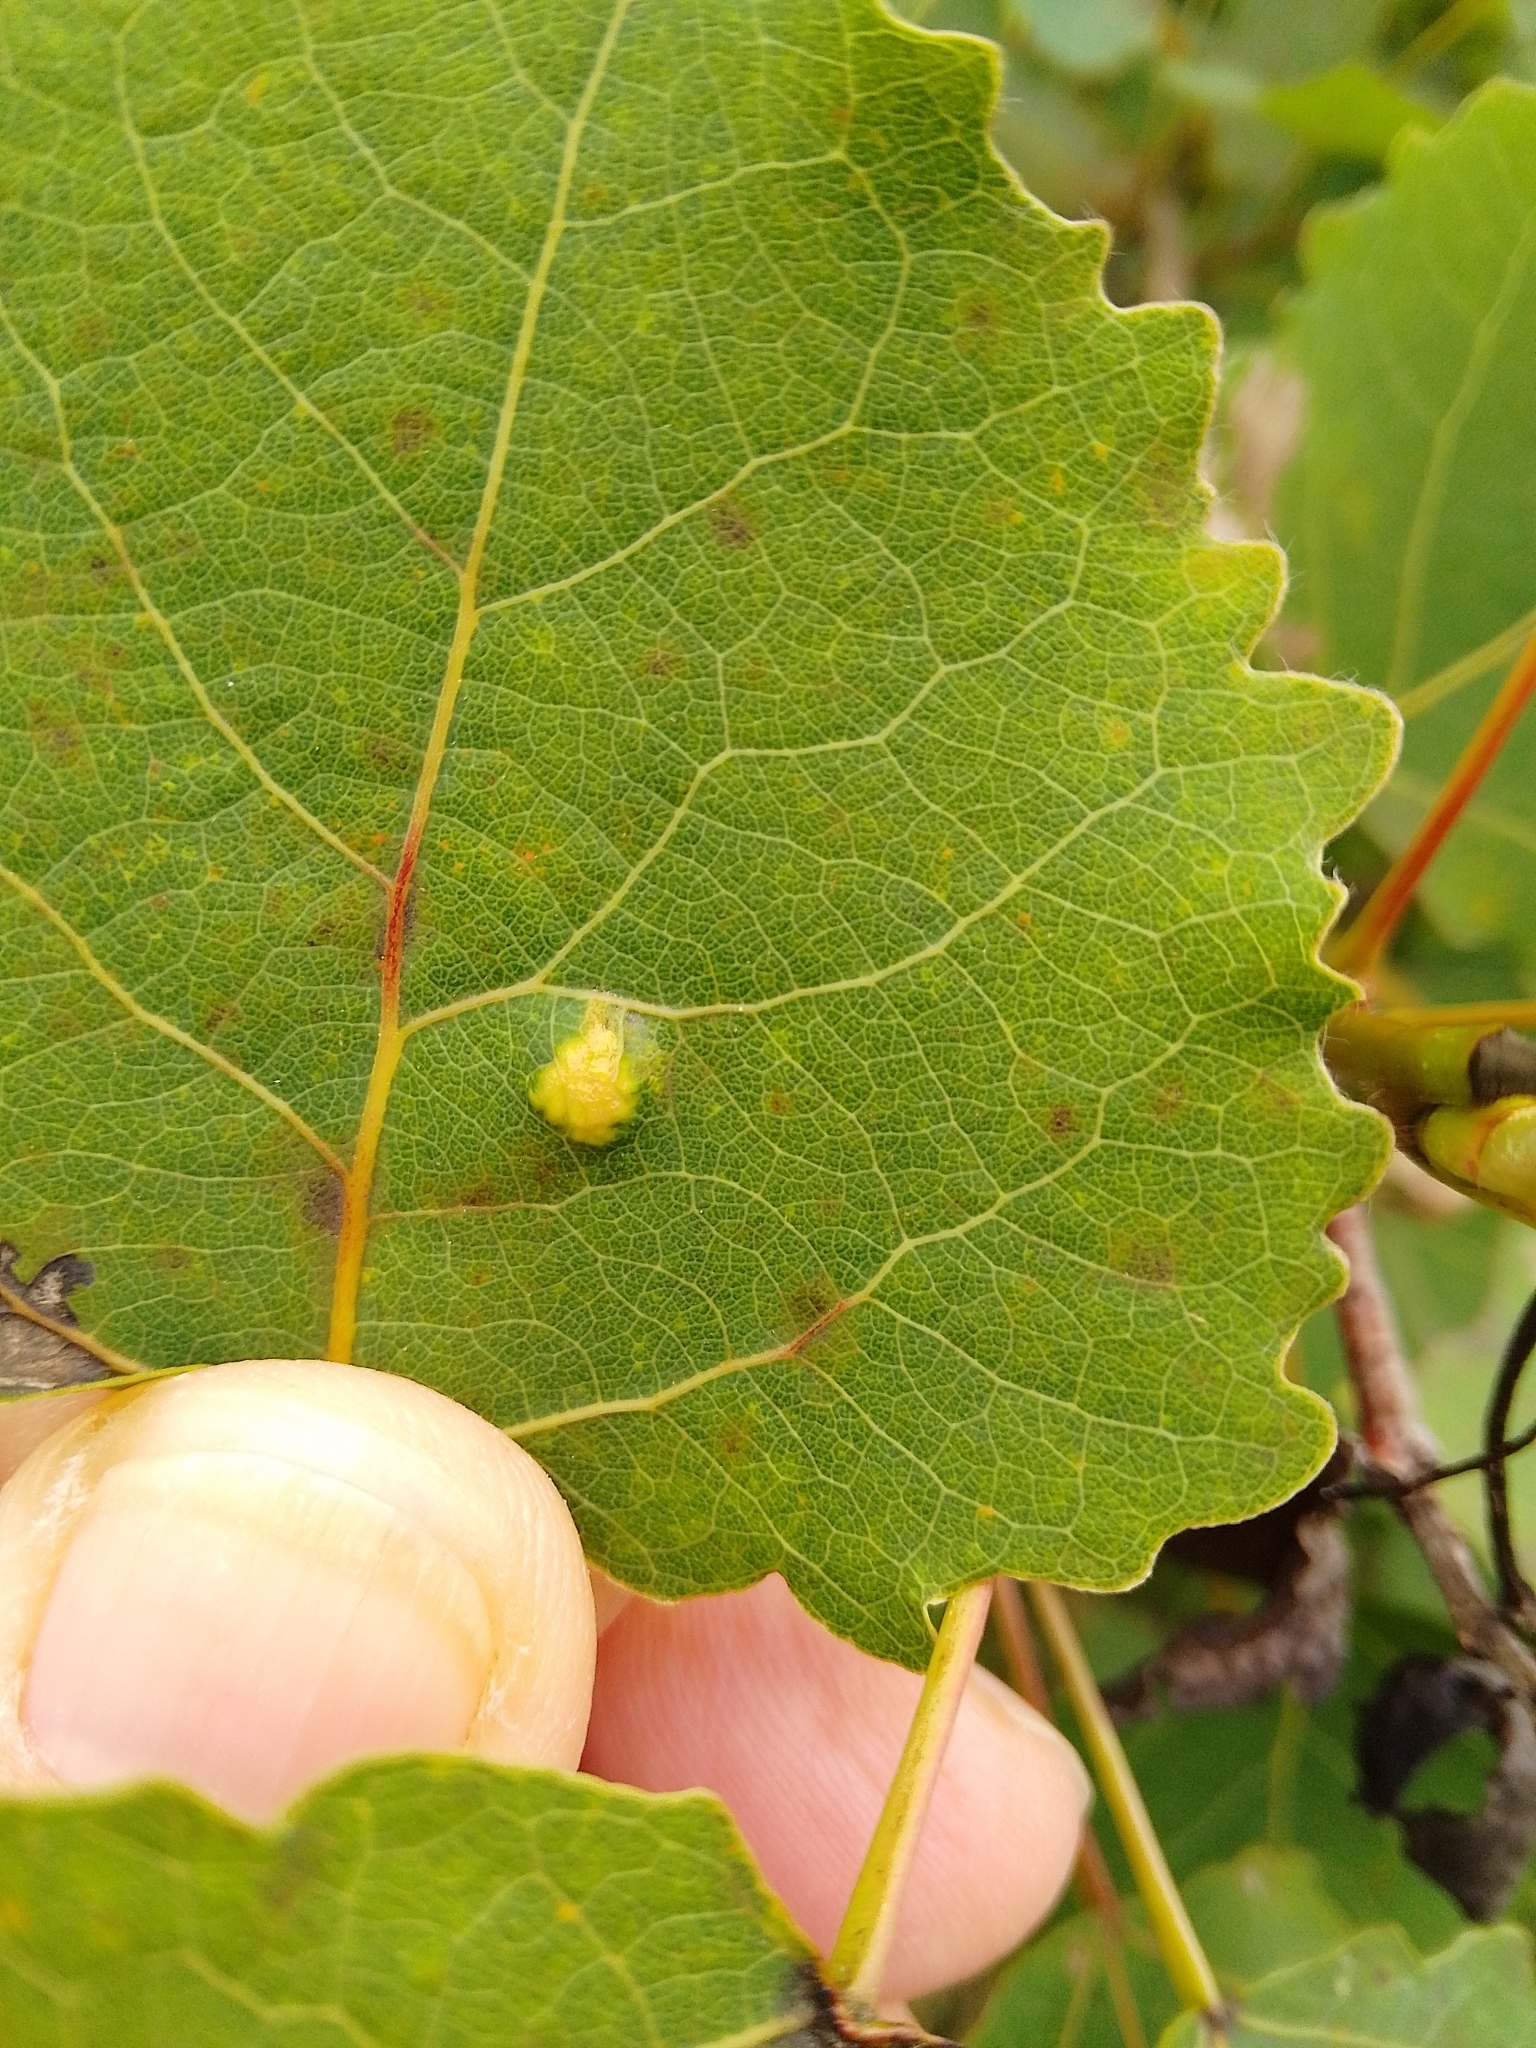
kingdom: Animalia
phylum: Arthropoda
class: Arachnida
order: Trombidiformes
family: Eriophyidae
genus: Phyllocoptes
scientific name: Phyllocoptes populi
